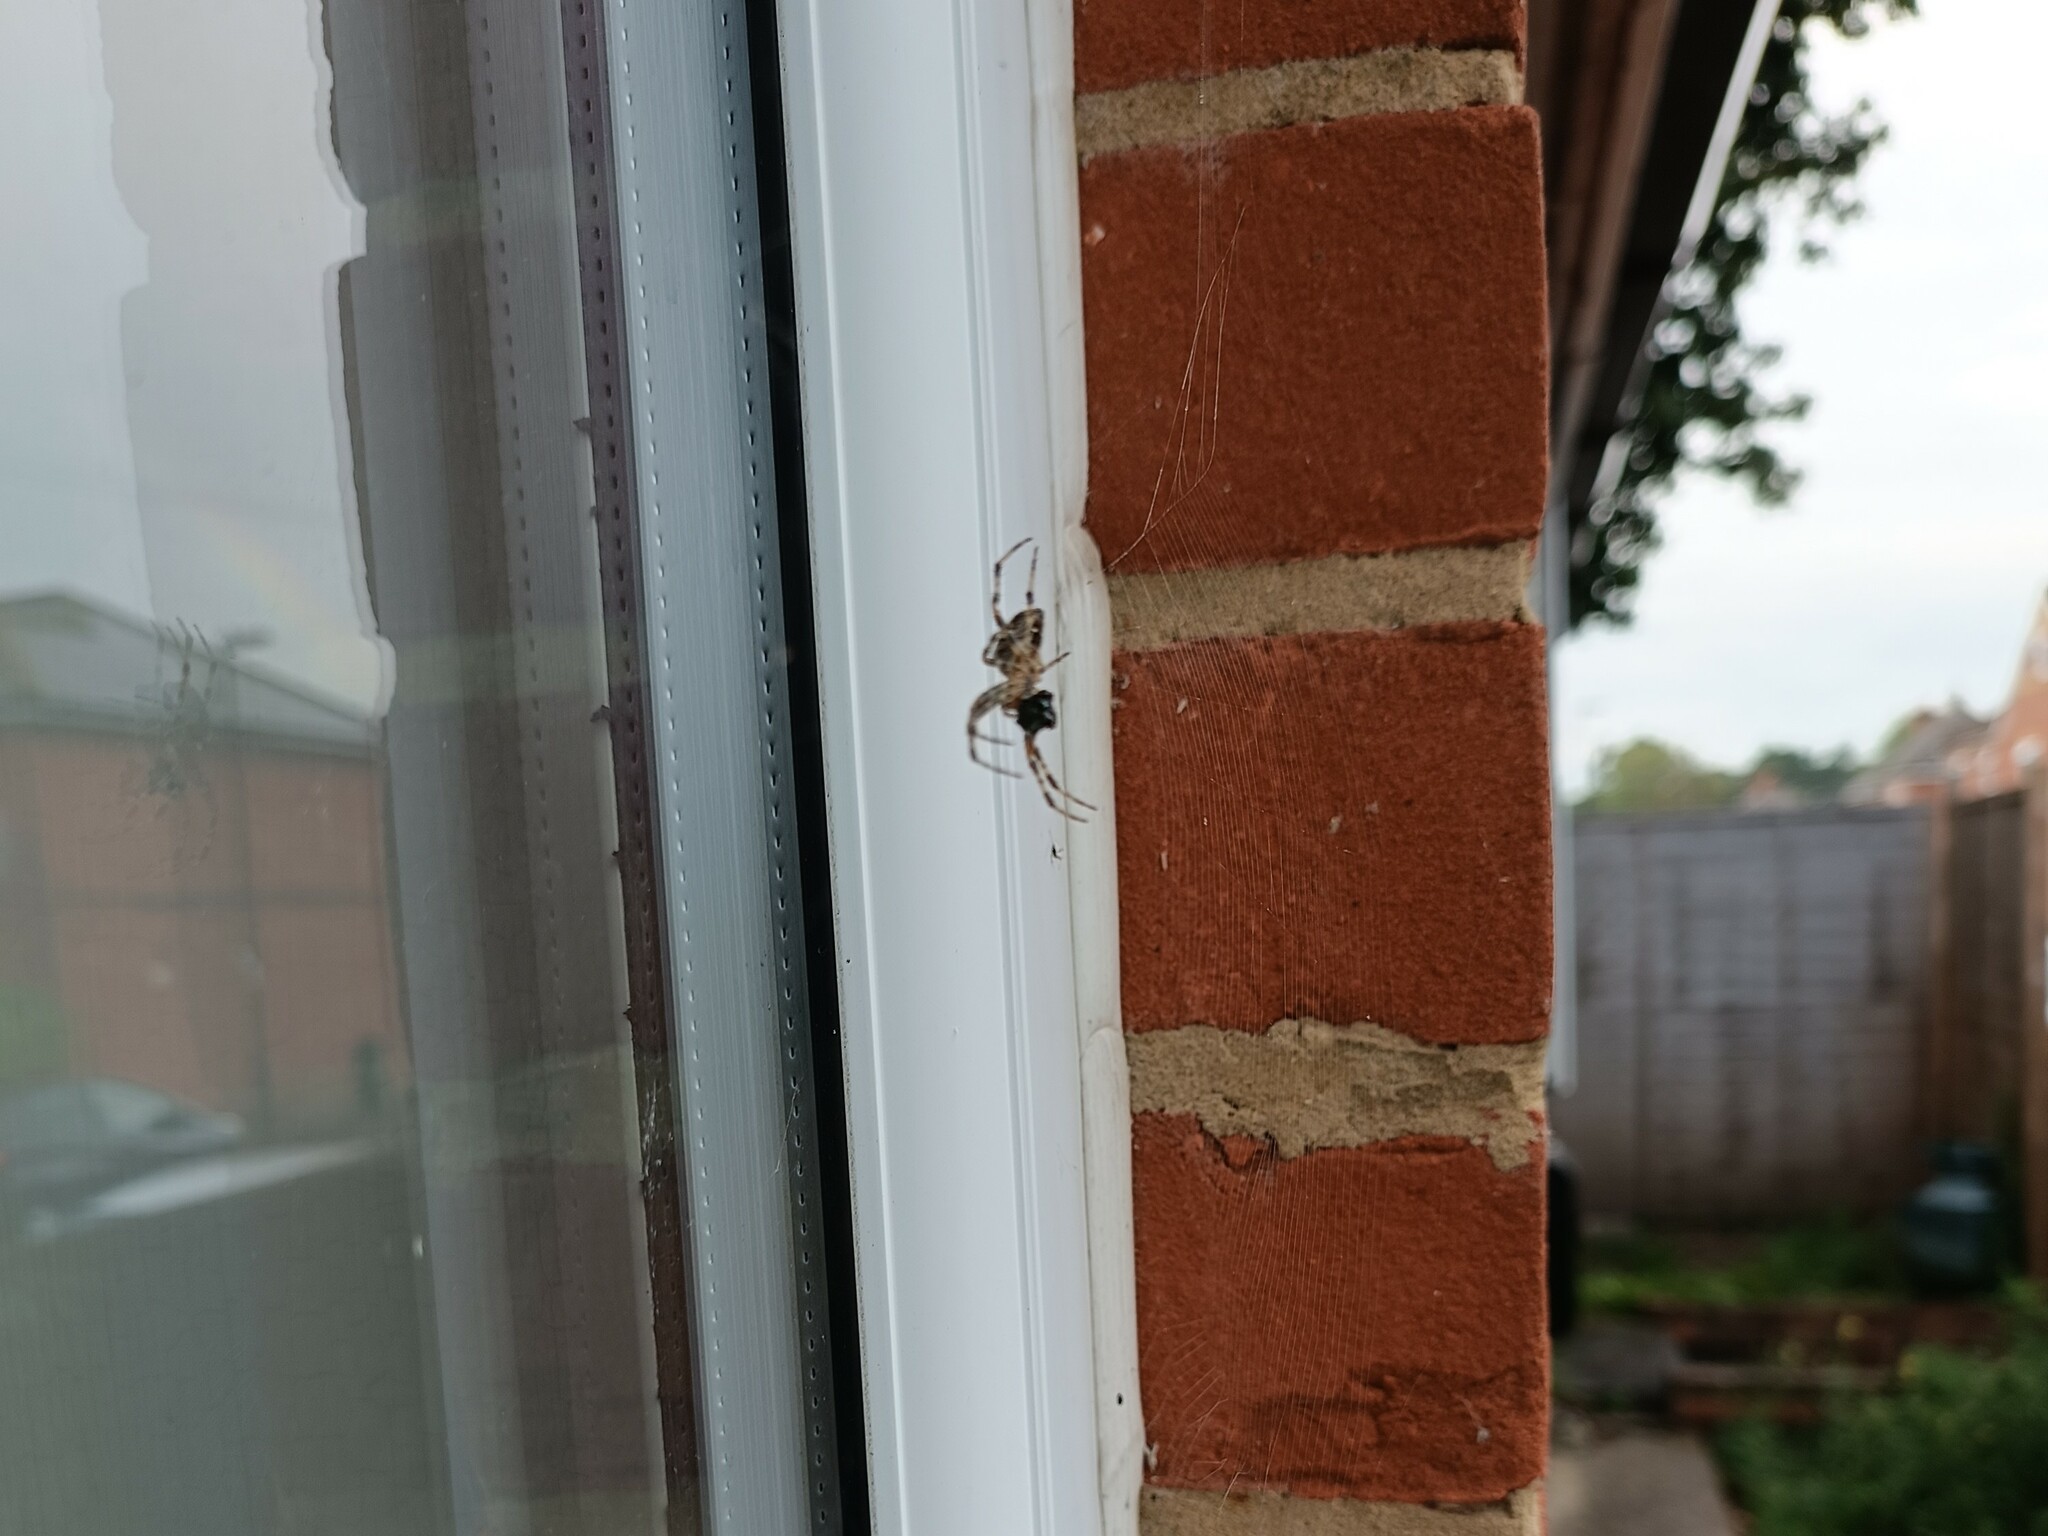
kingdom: Animalia
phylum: Arthropoda
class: Arachnida
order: Araneae
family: Araneidae
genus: Araneus
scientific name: Araneus diadematus
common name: Cross orbweaver
